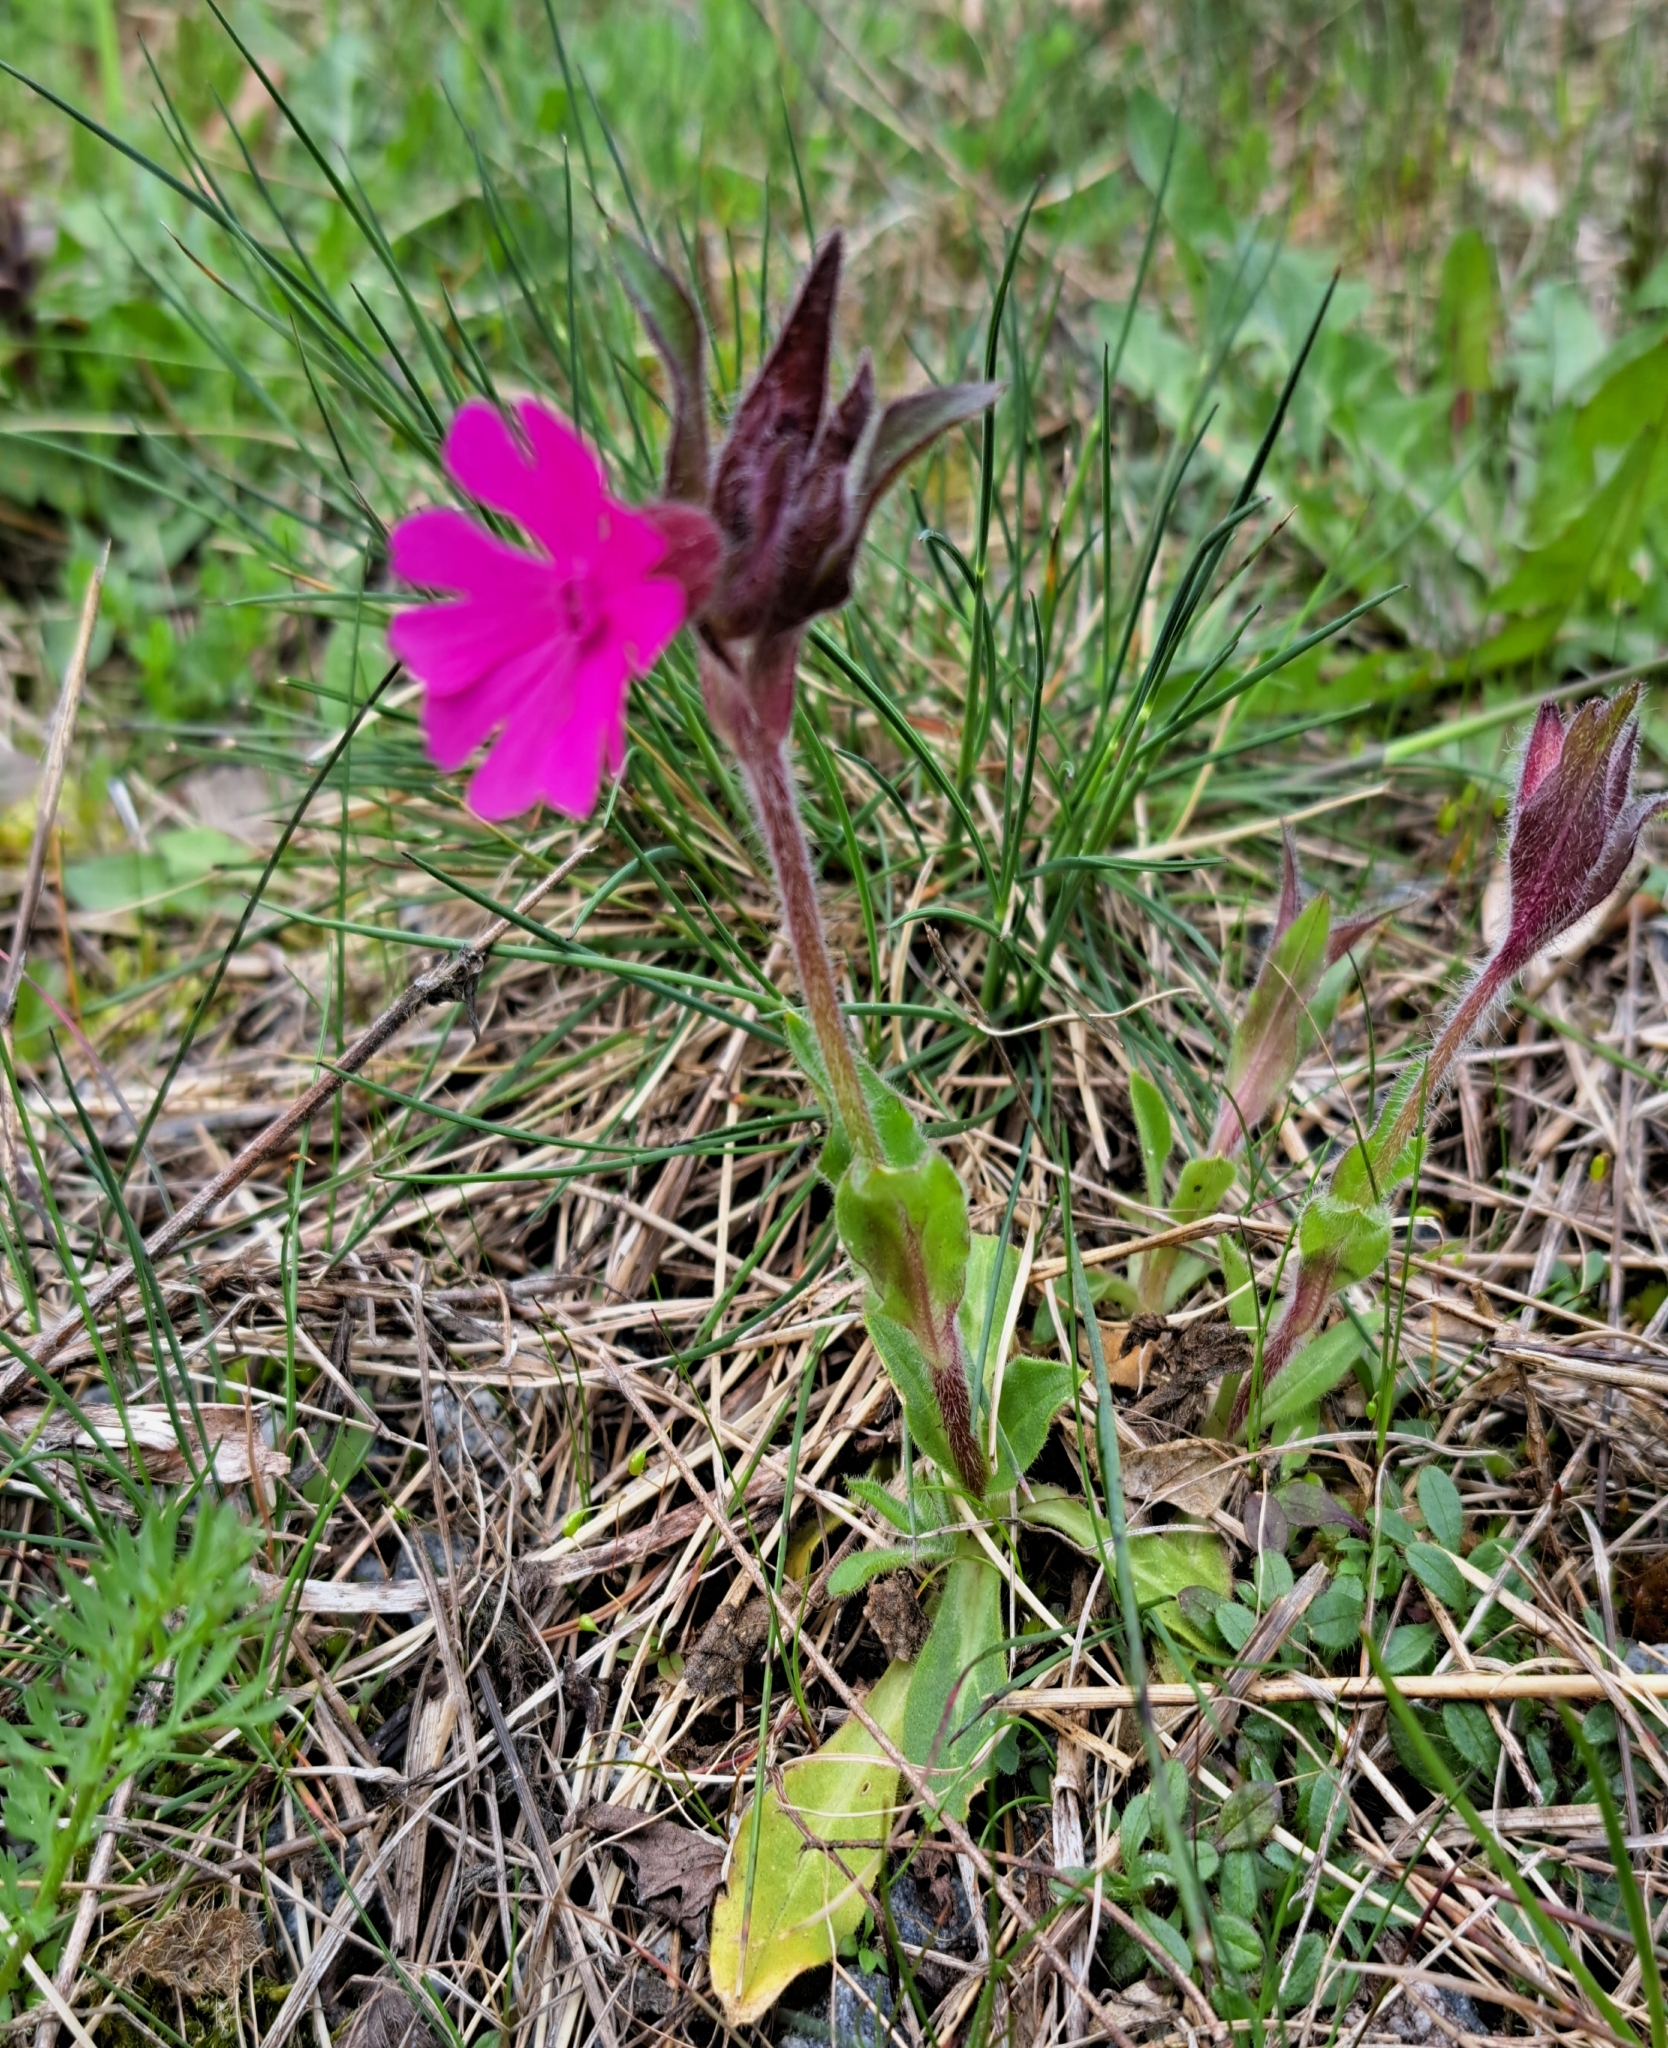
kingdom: Plantae
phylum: Tracheophyta
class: Magnoliopsida
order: Caryophyllales
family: Caryophyllaceae
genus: Silene
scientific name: Silene dioica
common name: Red campion
